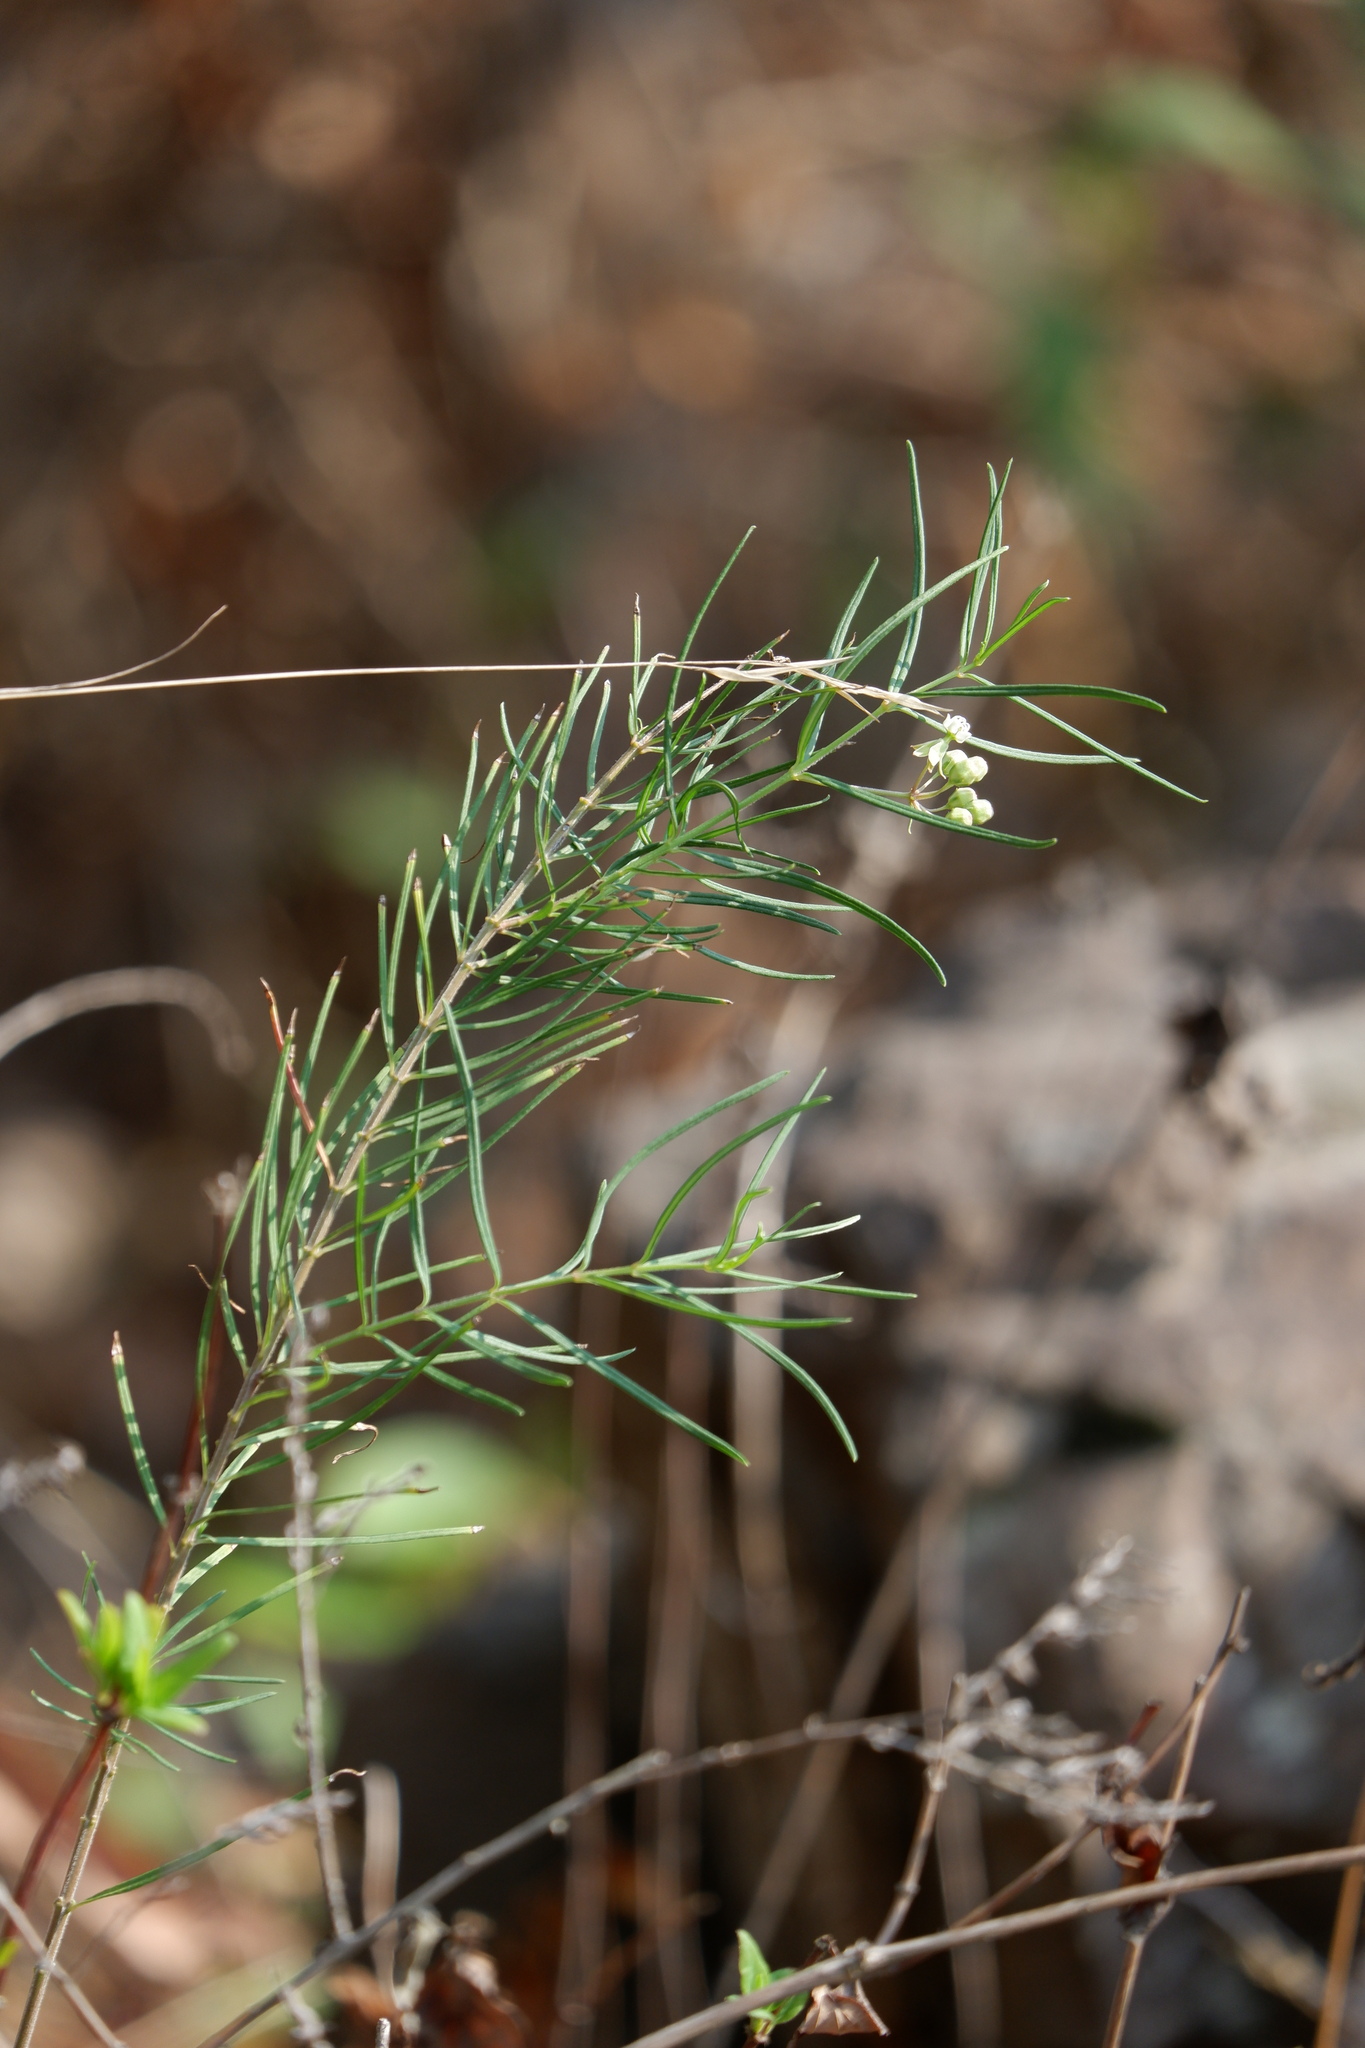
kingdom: Plantae
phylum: Tracheophyta
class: Magnoliopsida
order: Gentianales
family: Apocynaceae
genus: Asclepias
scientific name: Asclepias verticillata
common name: Eastern whorled milkweed
